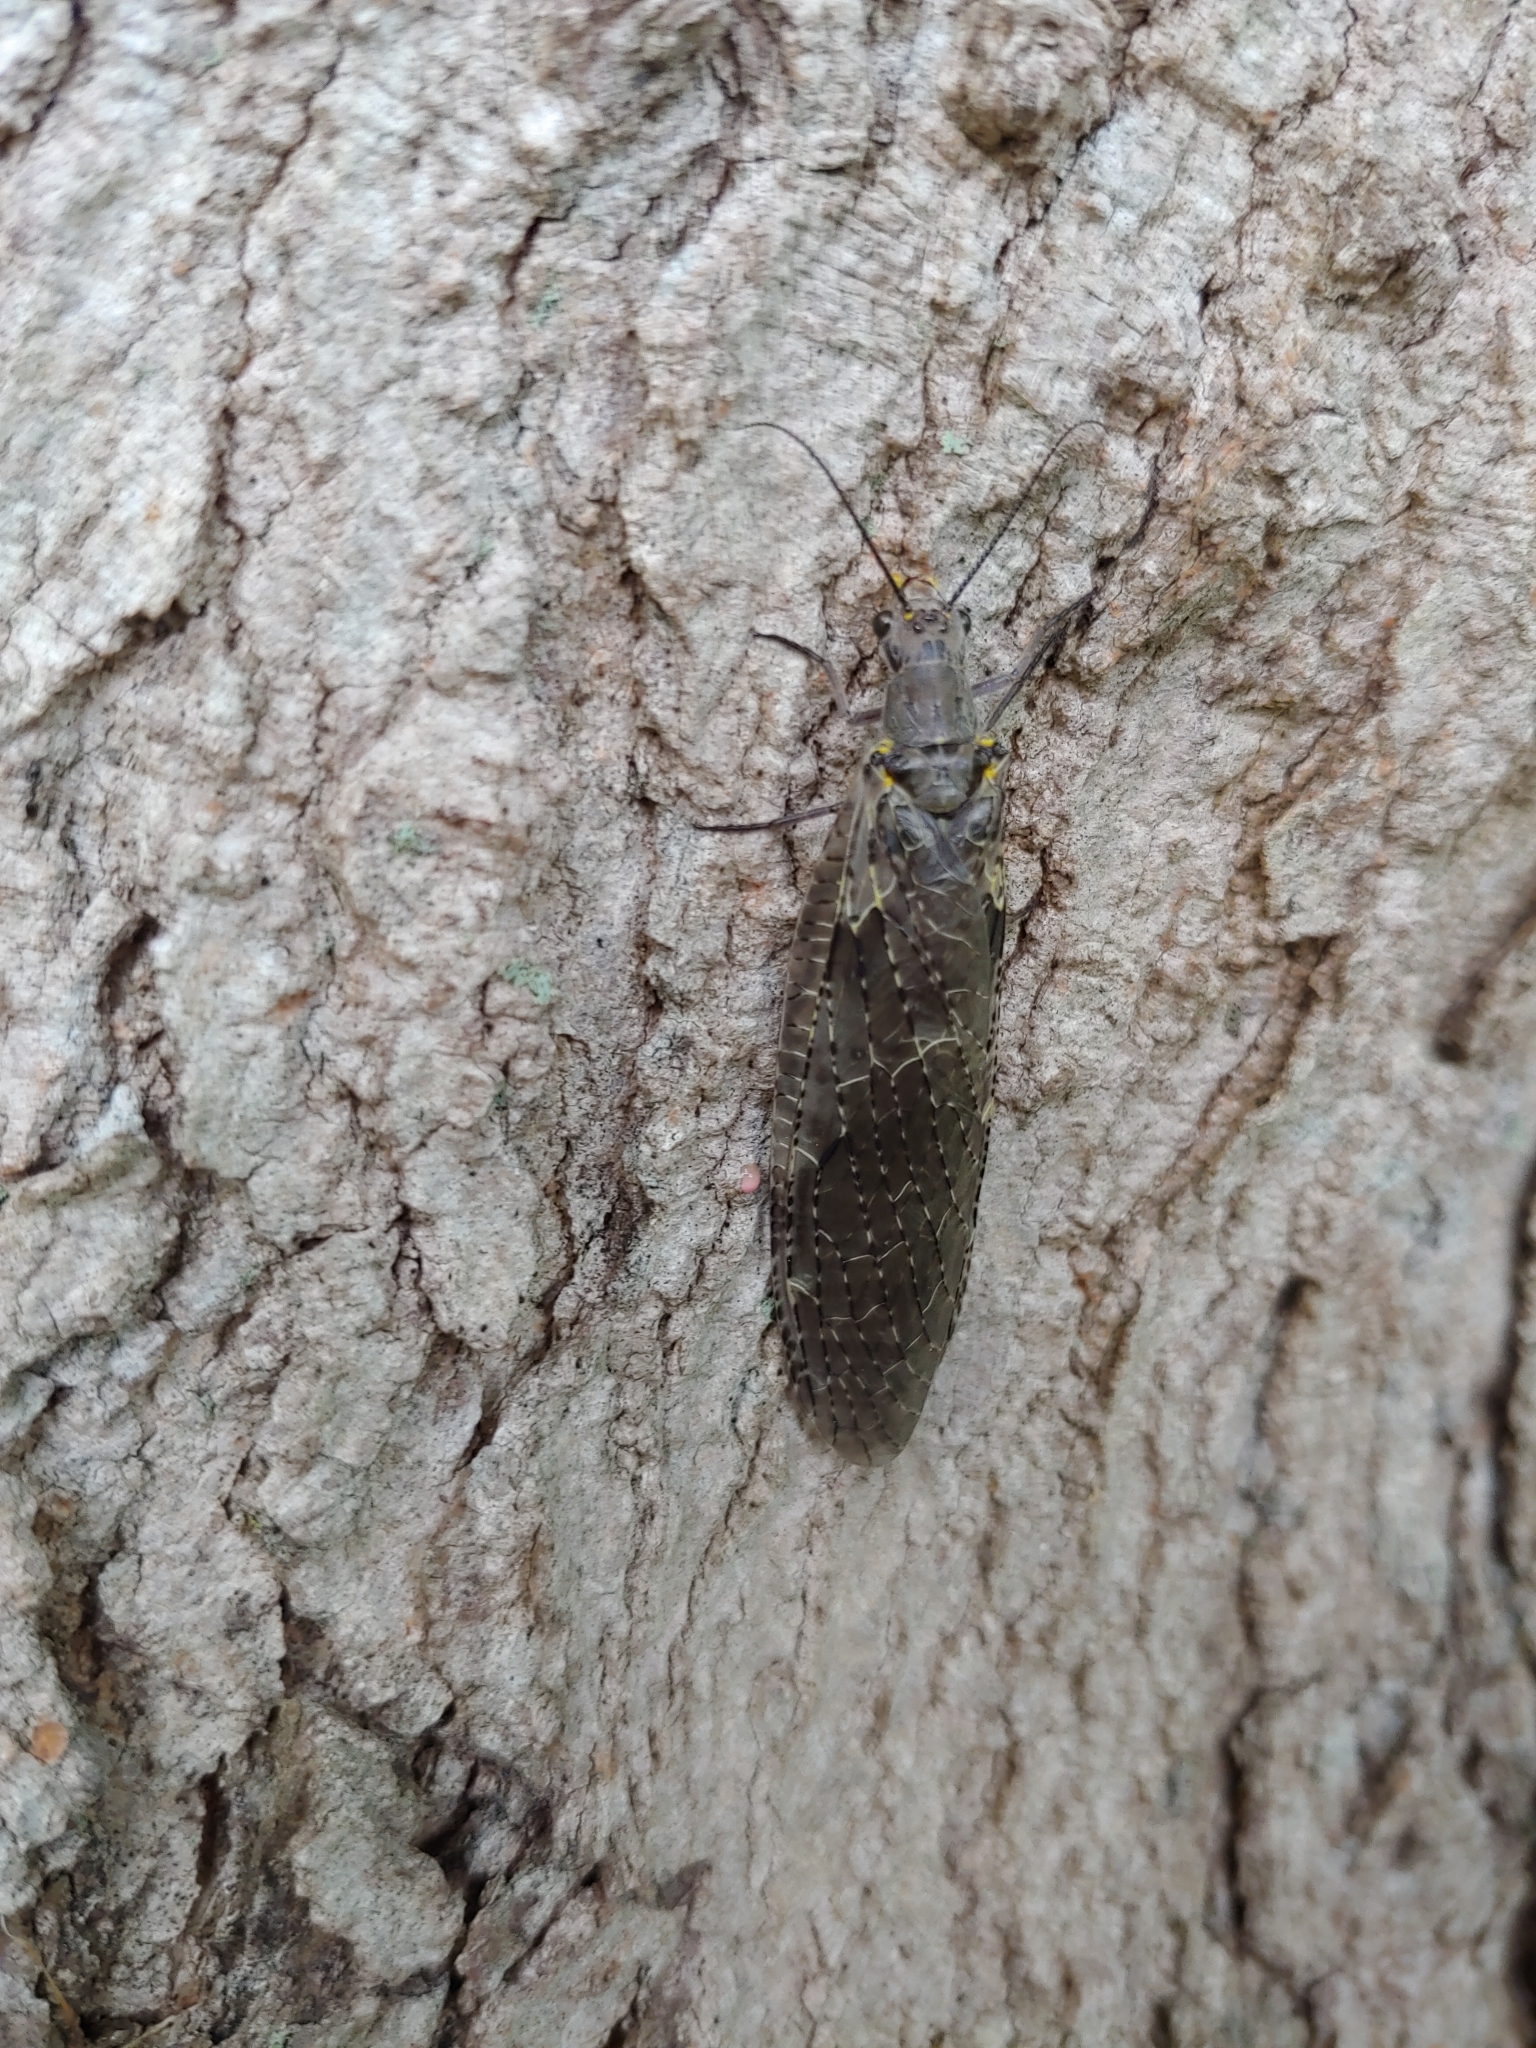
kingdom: Animalia
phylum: Arthropoda
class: Insecta
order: Megaloptera
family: Corydalidae
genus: Chauliodes
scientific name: Chauliodes rastricornis
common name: Spring fishfly
